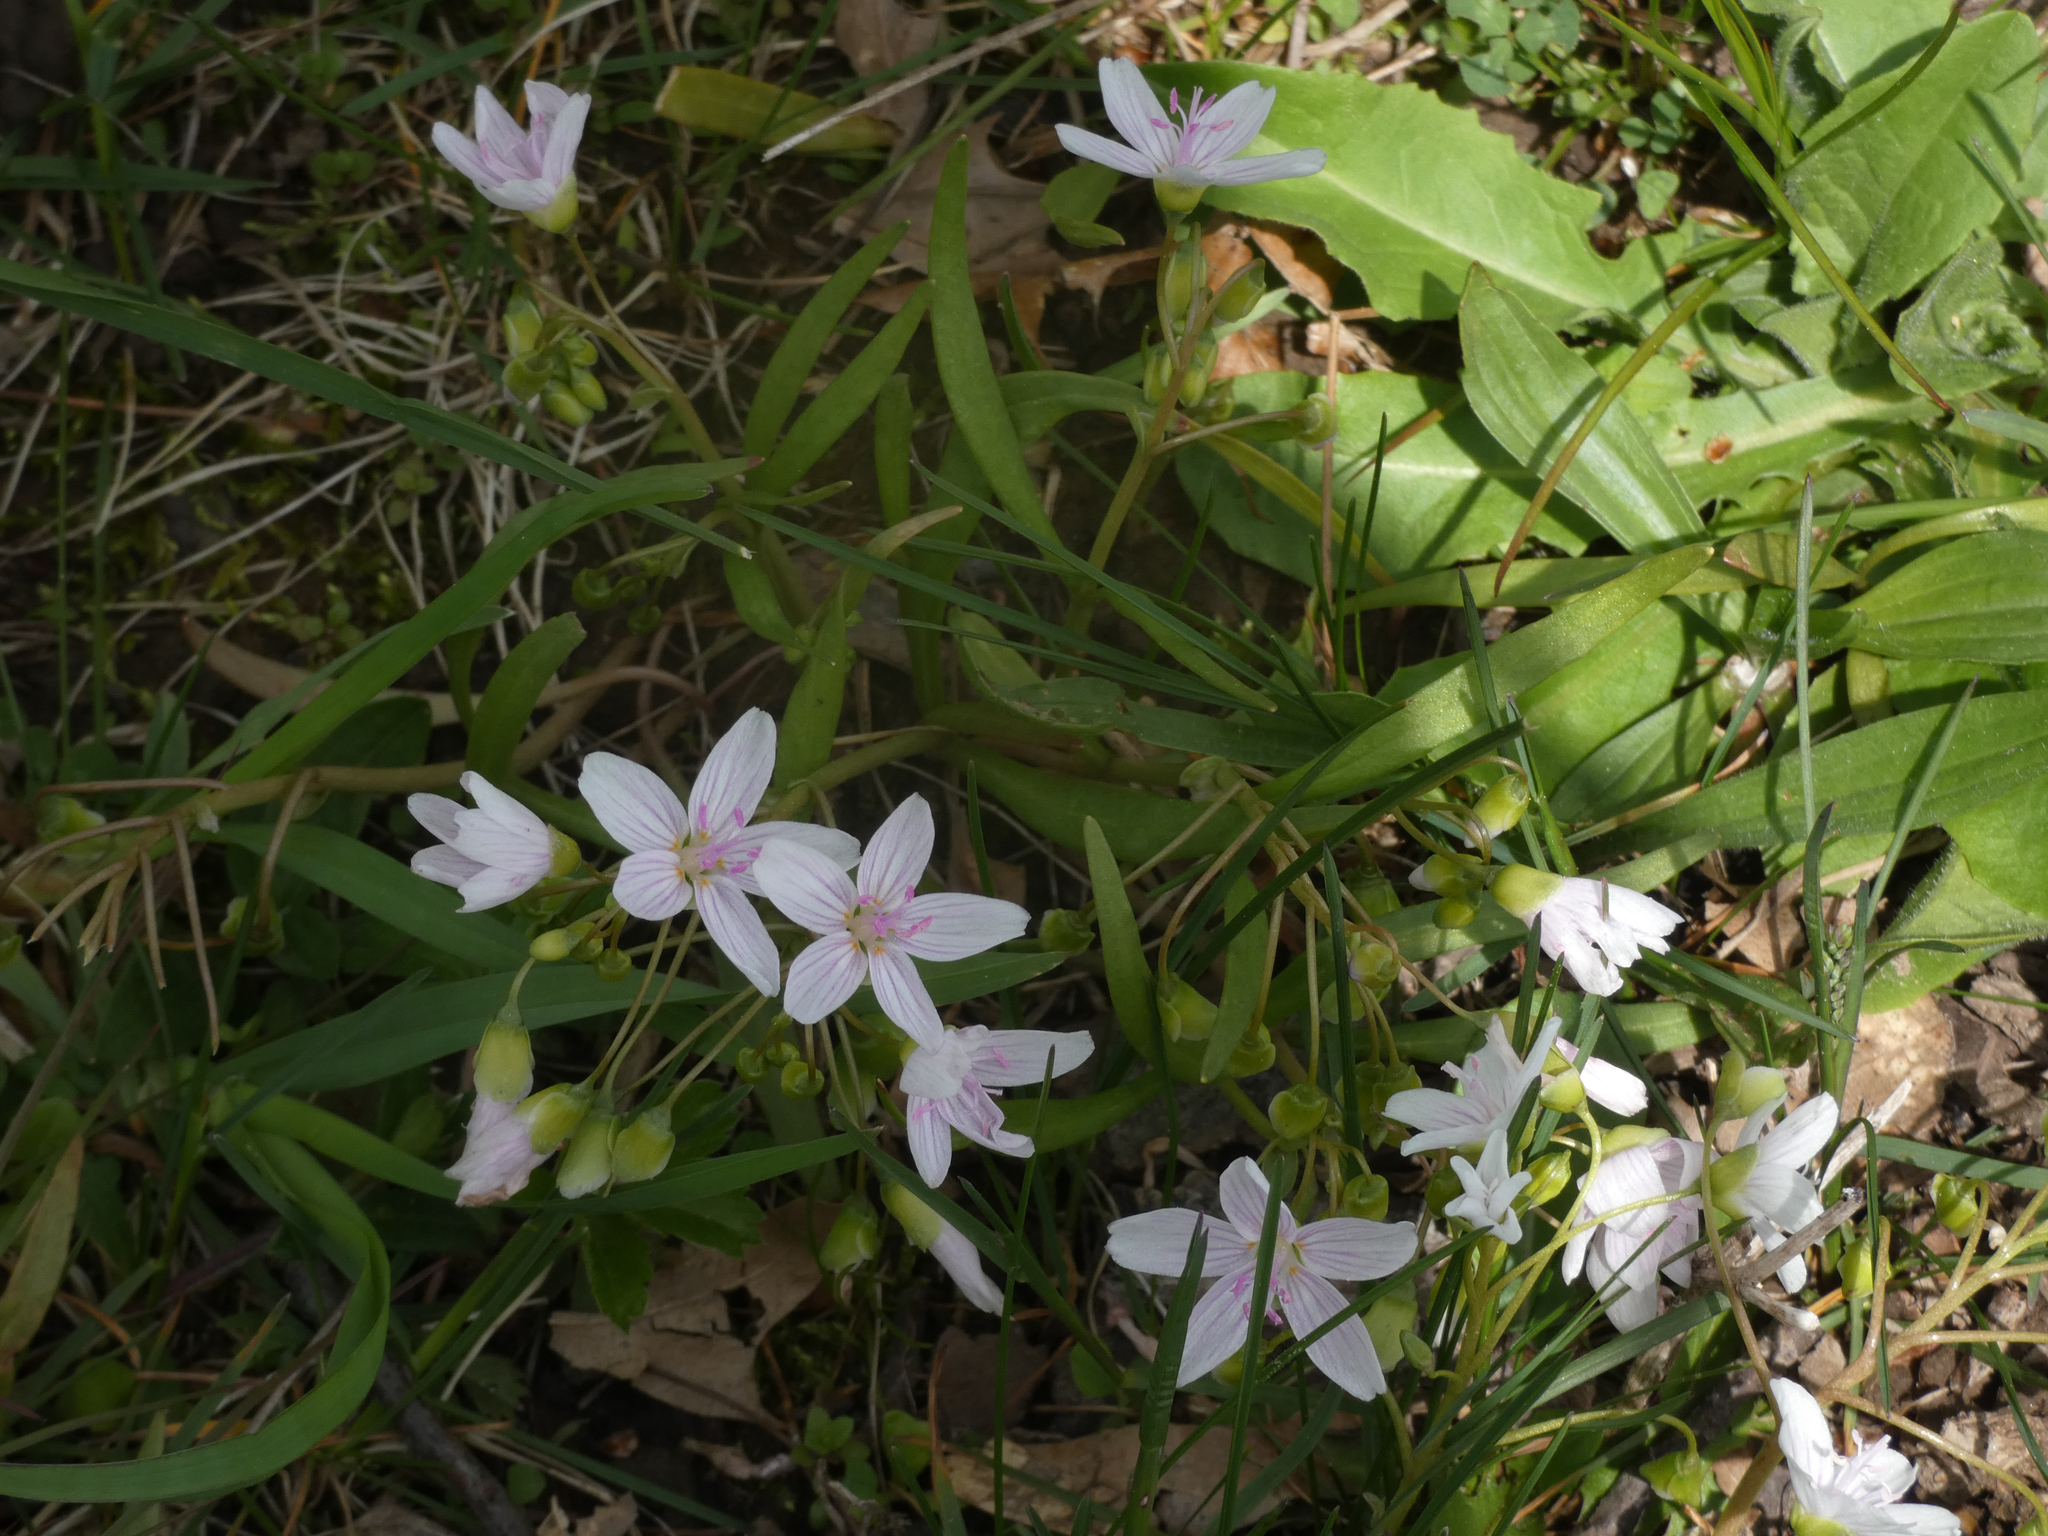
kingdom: Plantae
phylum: Tracheophyta
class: Magnoliopsida
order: Caryophyllales
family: Montiaceae
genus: Claytonia
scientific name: Claytonia virginica
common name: Virginia springbeauty
